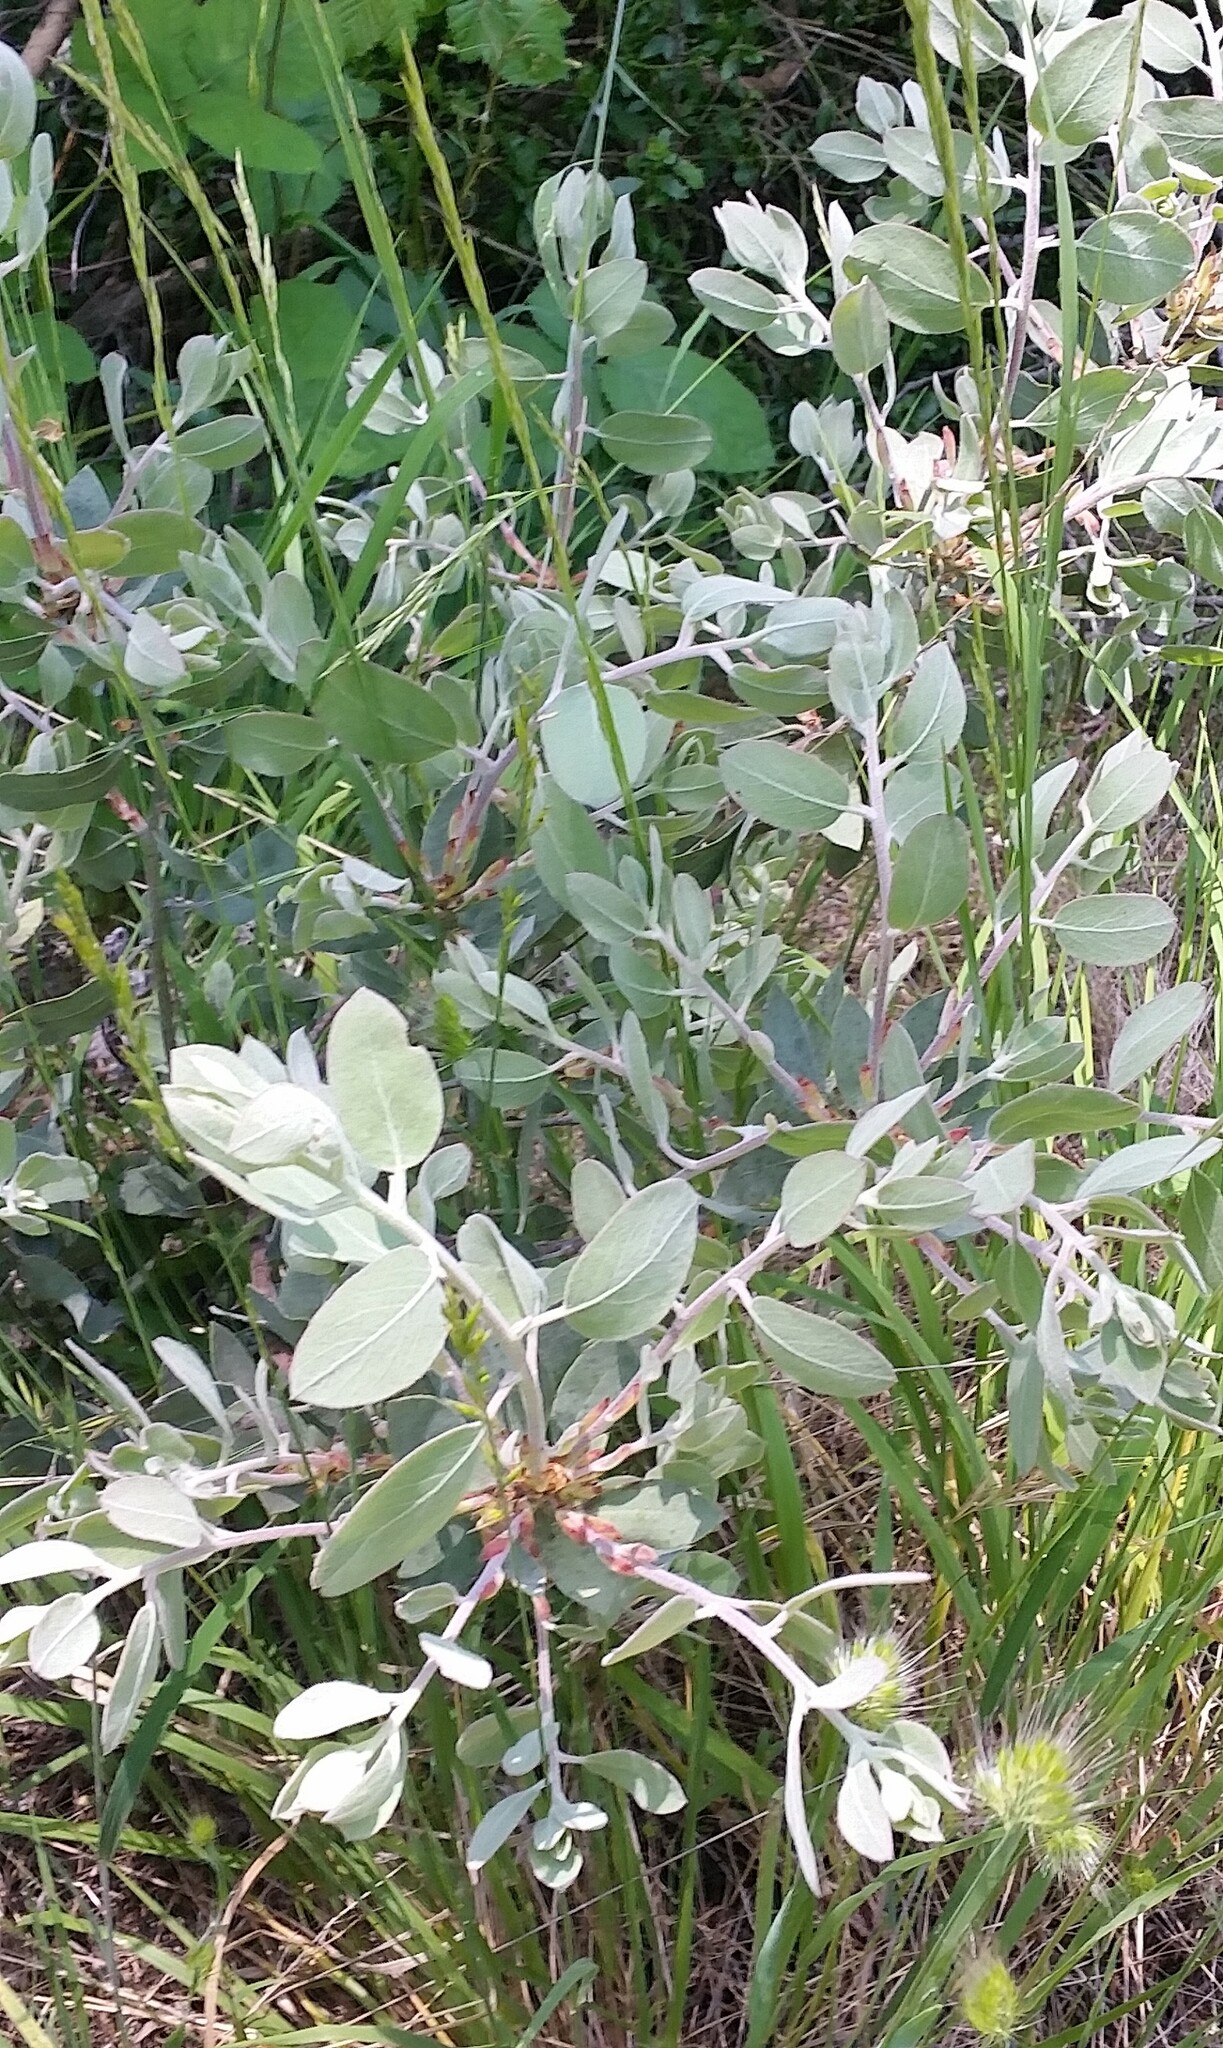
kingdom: Plantae
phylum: Tracheophyta
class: Magnoliopsida
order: Ericales
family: Ericaceae
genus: Arctostaphylos
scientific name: Arctostaphylos canescens
